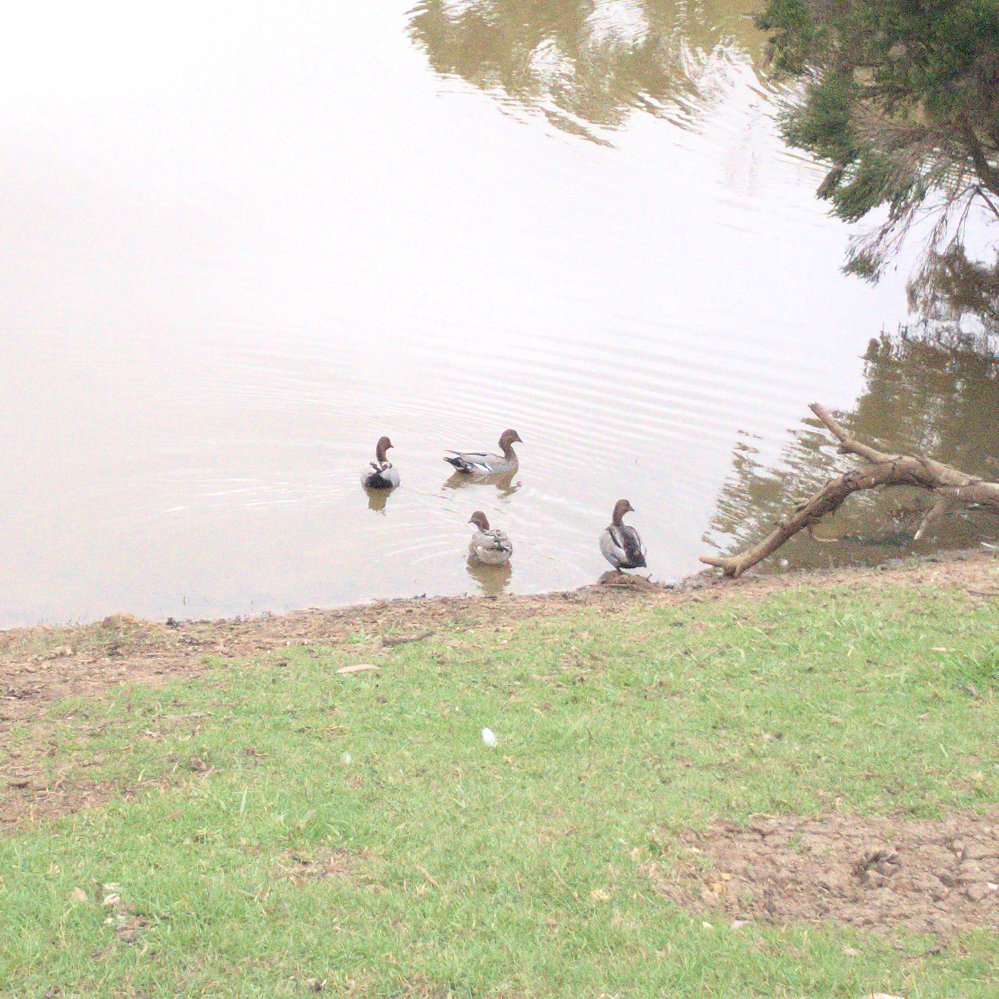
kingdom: Animalia
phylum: Chordata
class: Aves
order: Anseriformes
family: Anatidae
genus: Chenonetta
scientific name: Chenonetta jubata
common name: Maned duck
